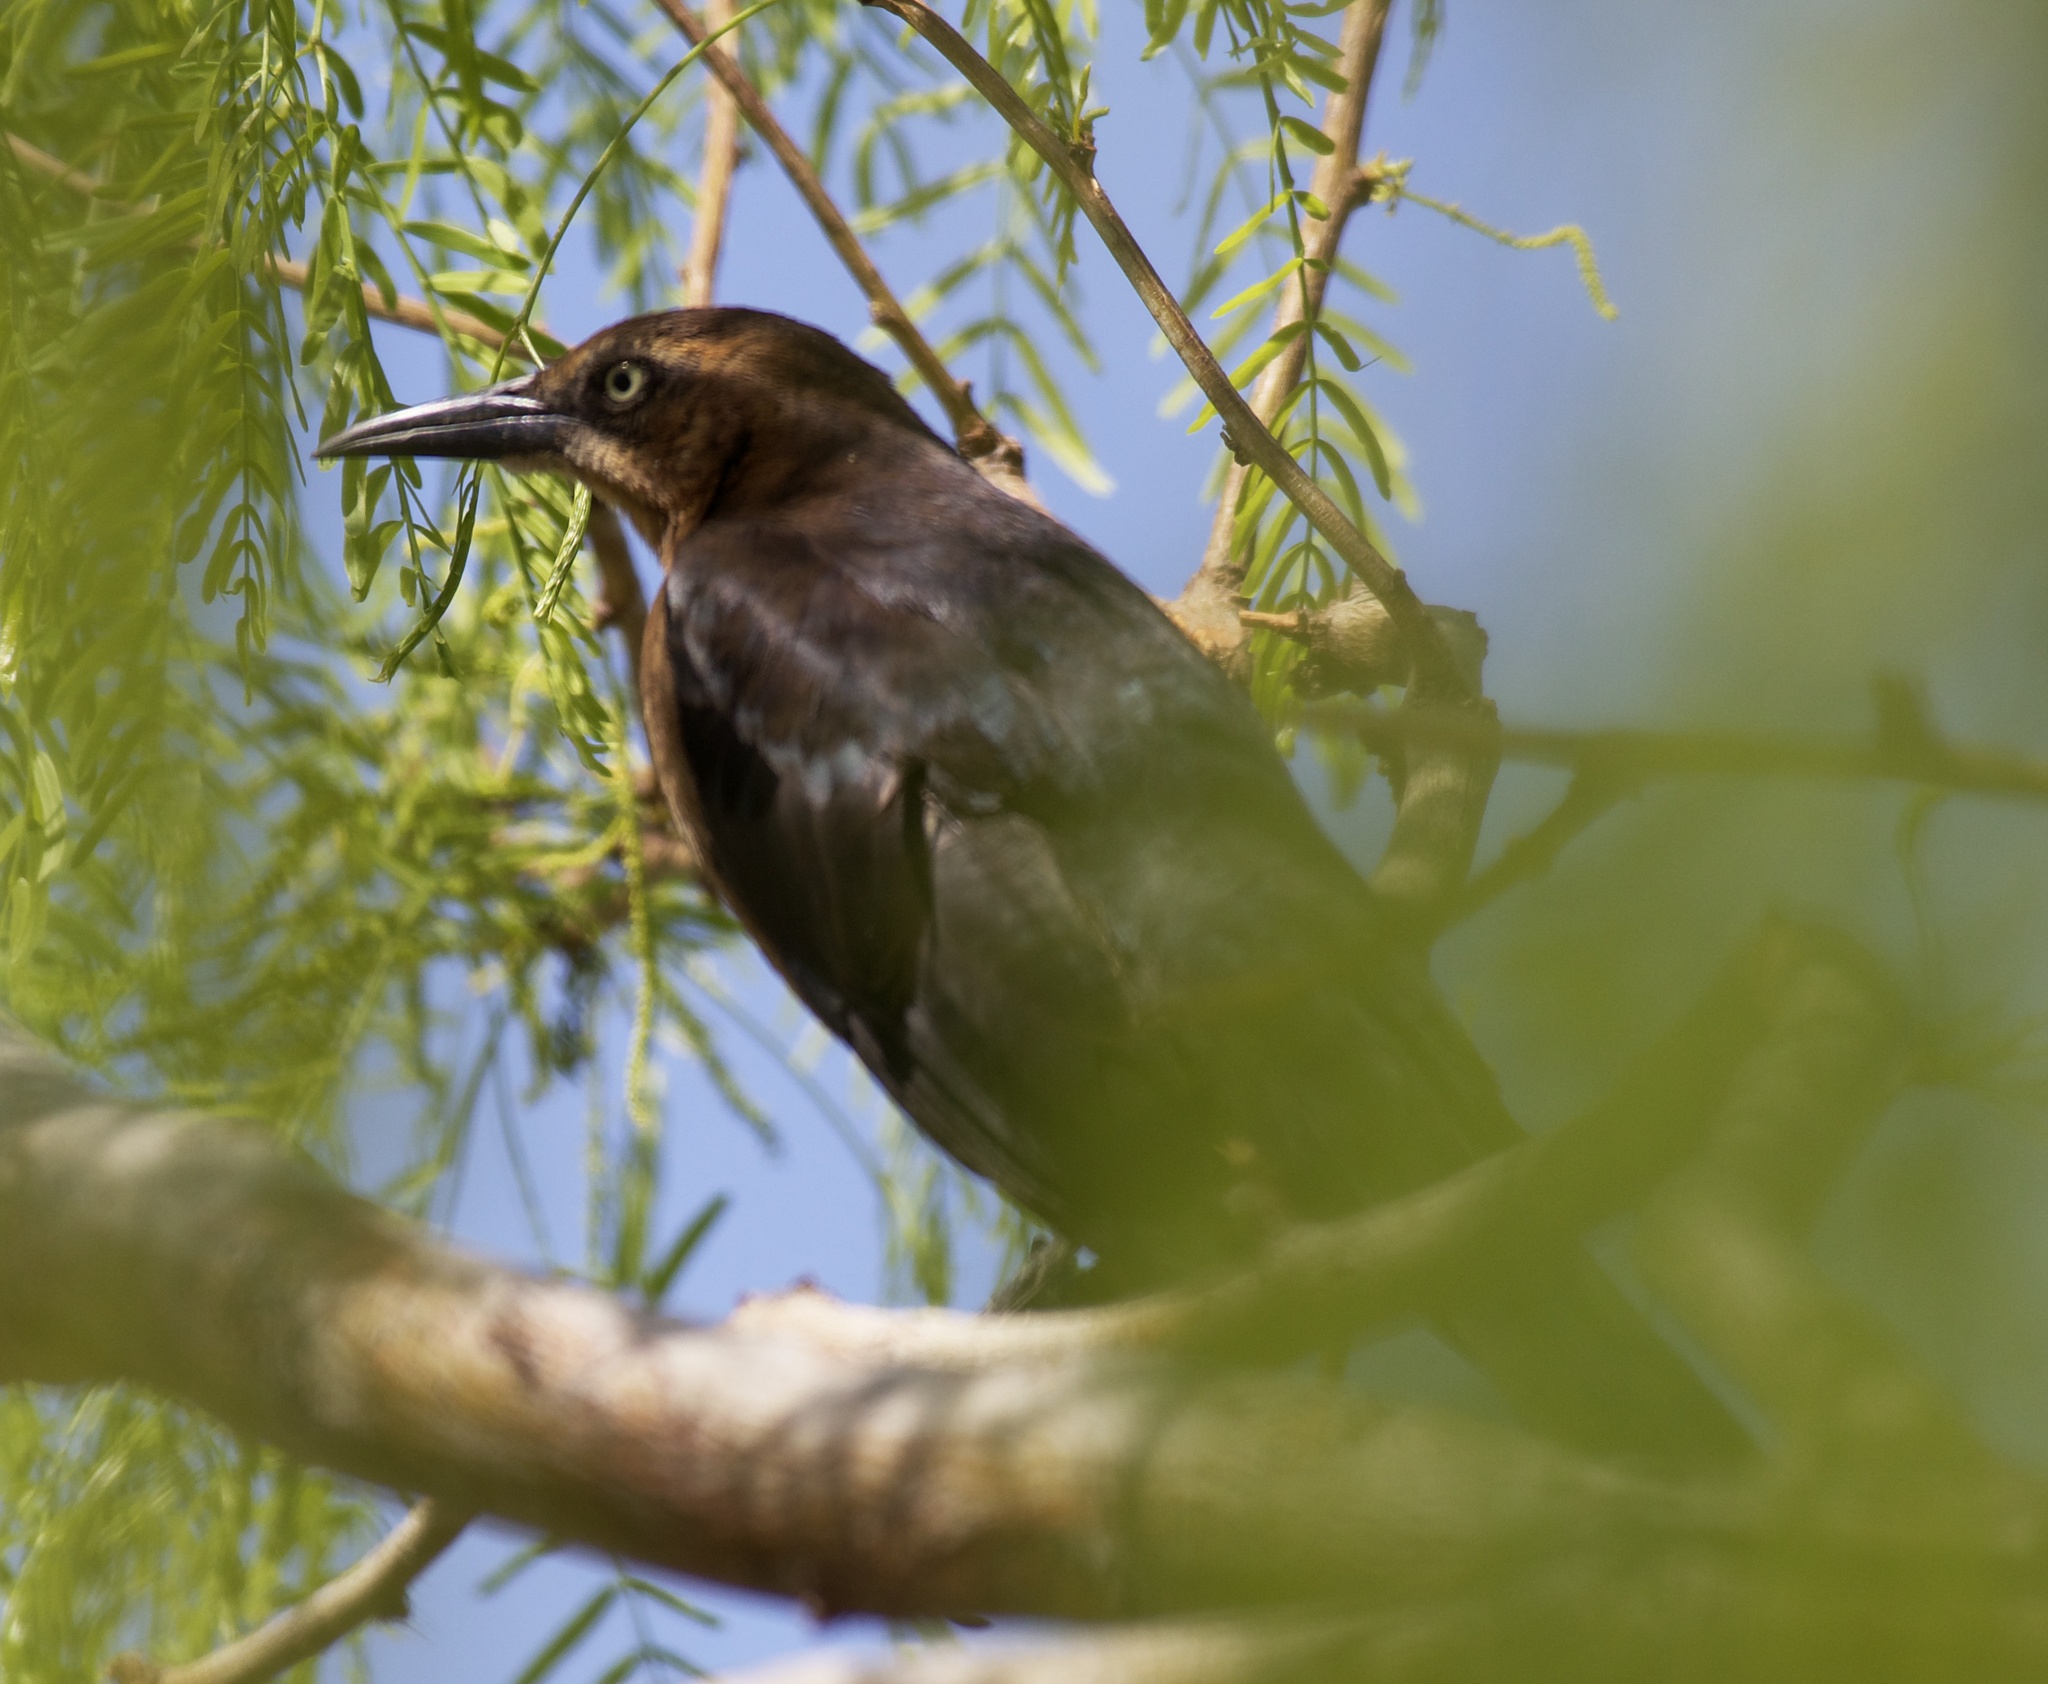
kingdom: Animalia
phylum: Chordata
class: Aves
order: Passeriformes
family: Icteridae
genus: Quiscalus
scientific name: Quiscalus mexicanus
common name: Great-tailed grackle
